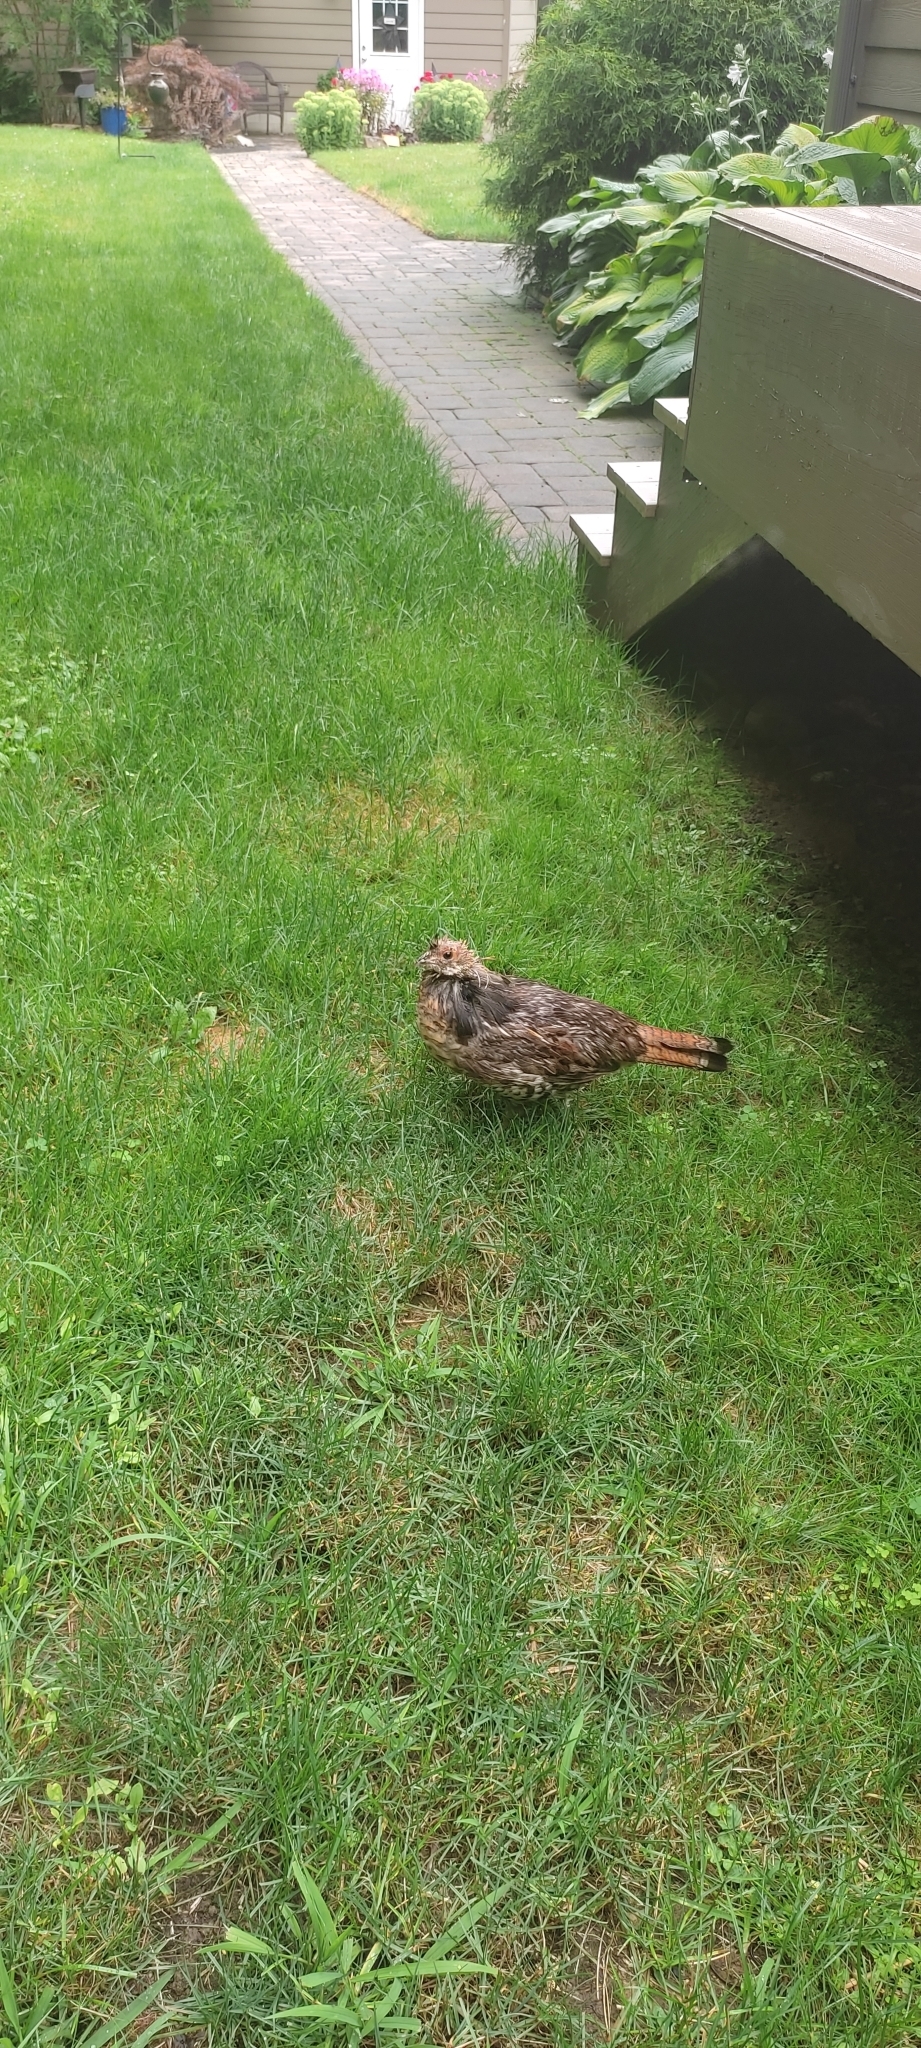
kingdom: Animalia
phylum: Chordata
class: Aves
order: Galliformes
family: Phasianidae
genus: Bonasa
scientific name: Bonasa umbellus
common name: Ruffed grouse
